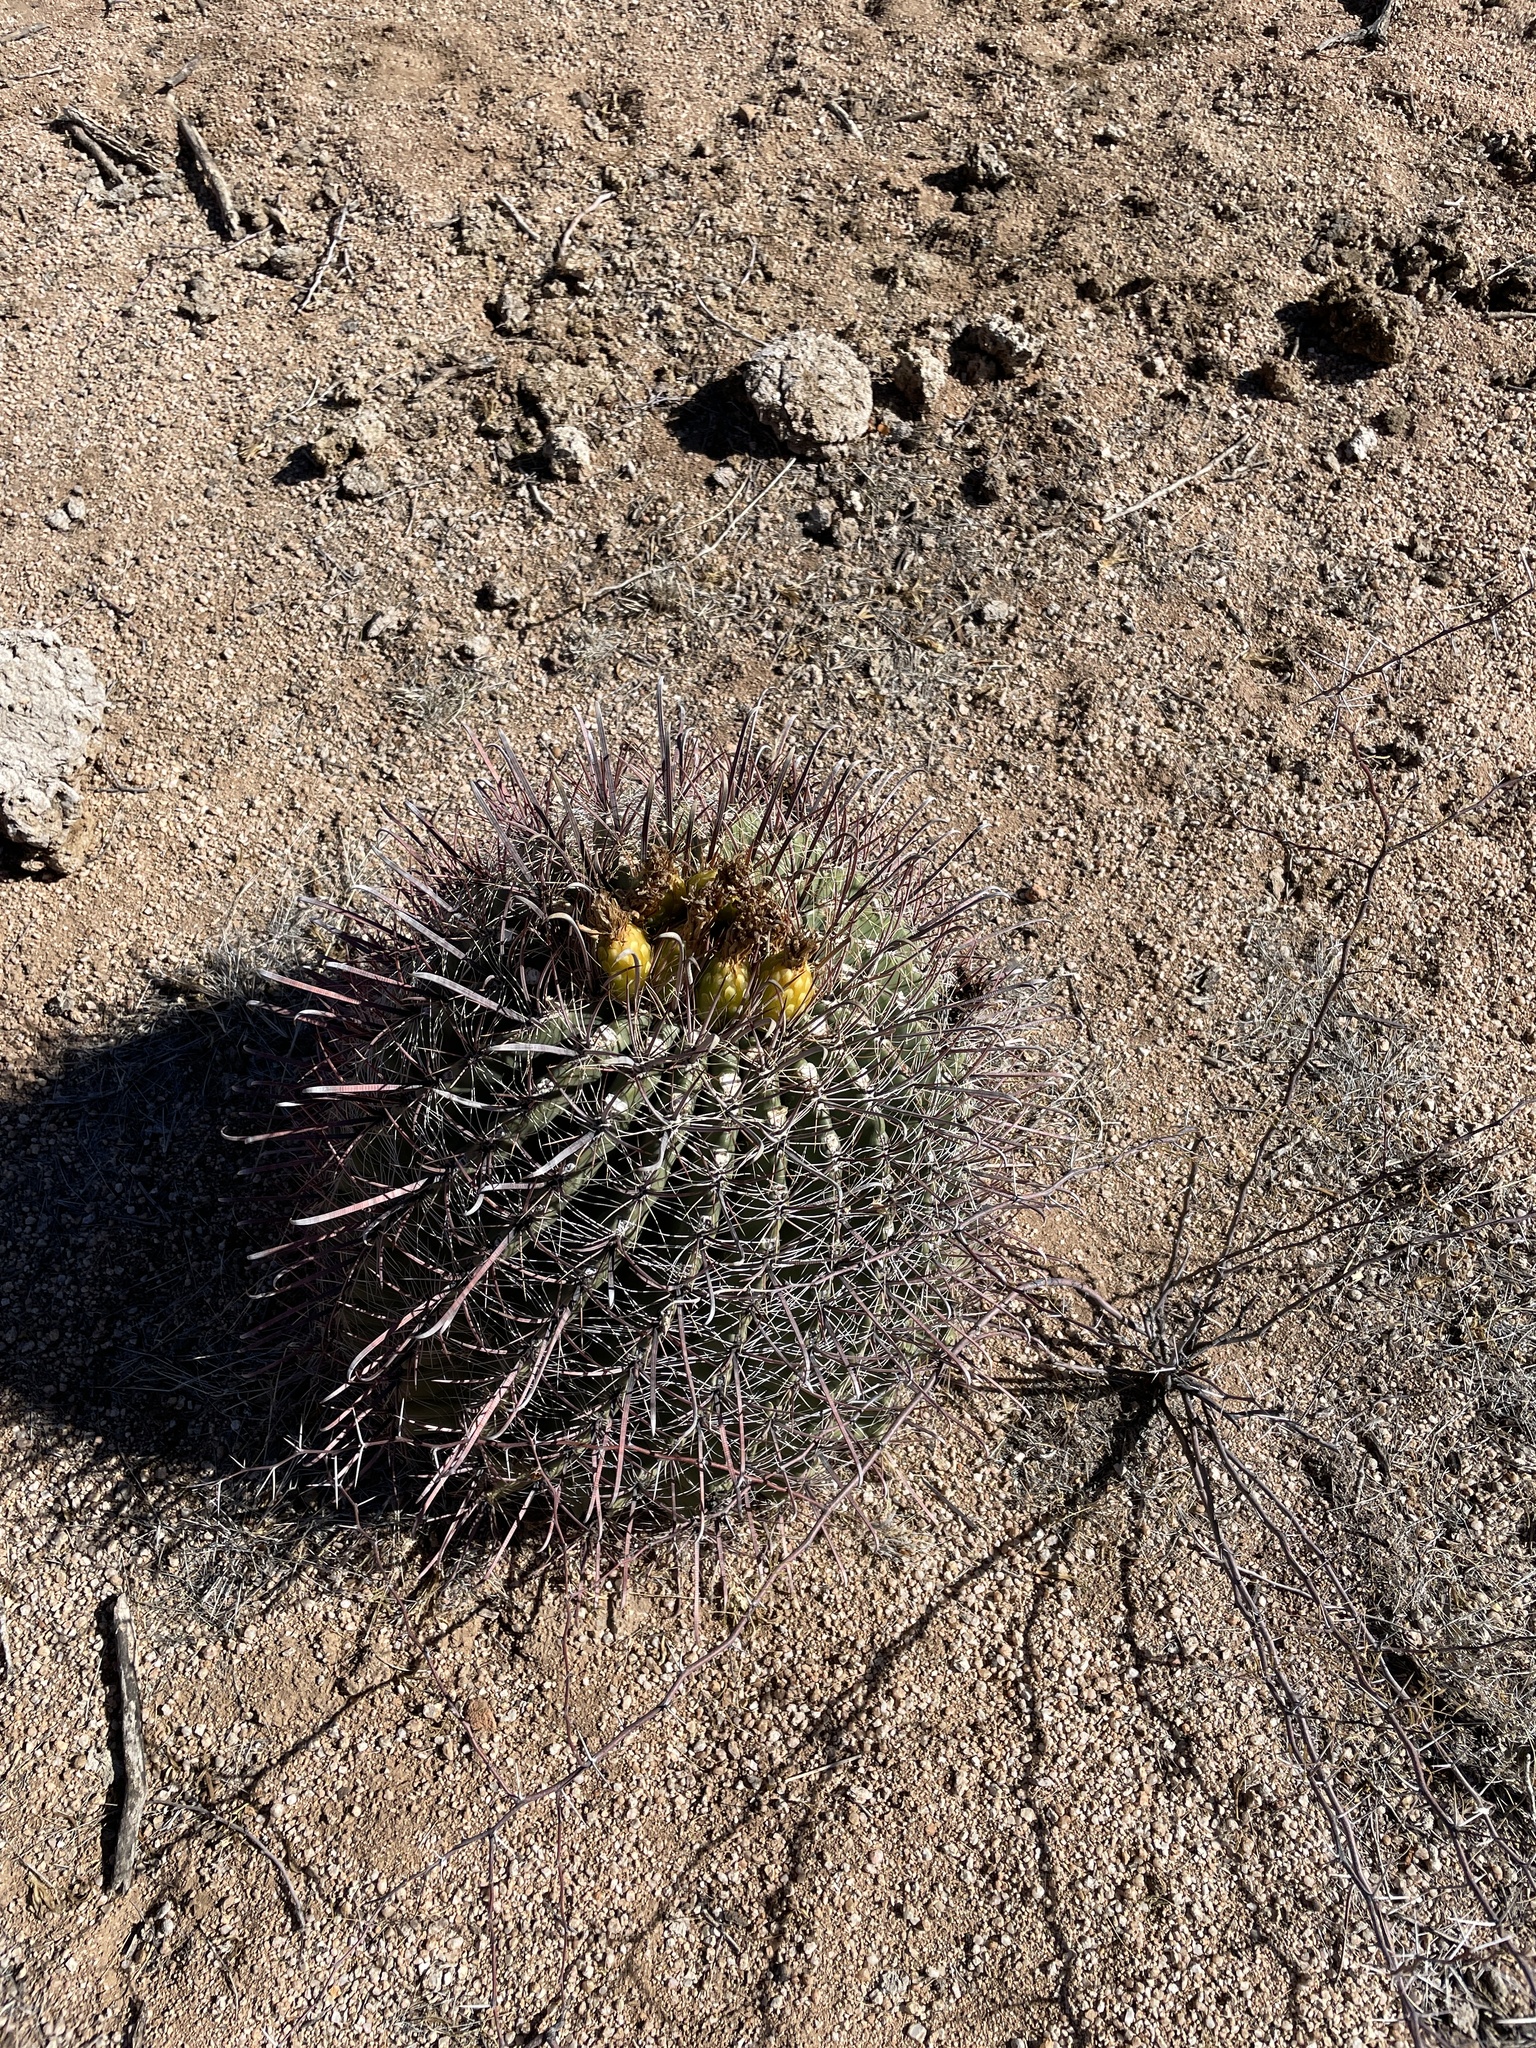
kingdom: Plantae
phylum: Tracheophyta
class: Magnoliopsida
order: Caryophyllales
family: Cactaceae
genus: Ferocactus
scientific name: Ferocactus wislizeni
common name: Candy barrel cactus
